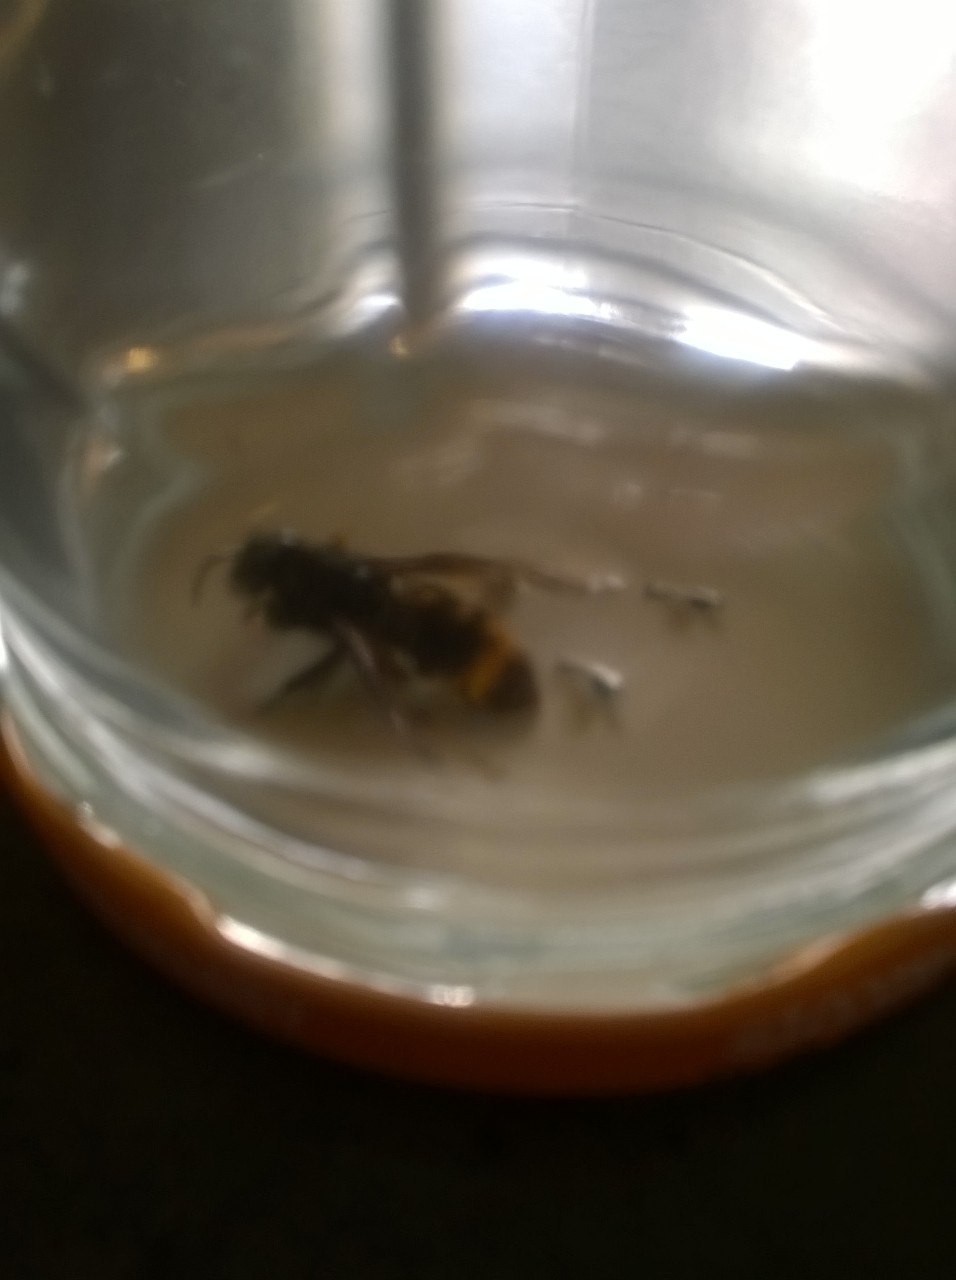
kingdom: Animalia
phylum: Arthropoda
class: Insecta
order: Hymenoptera
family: Vespidae
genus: Vespa
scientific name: Vespa velutina
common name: Asian hornet
